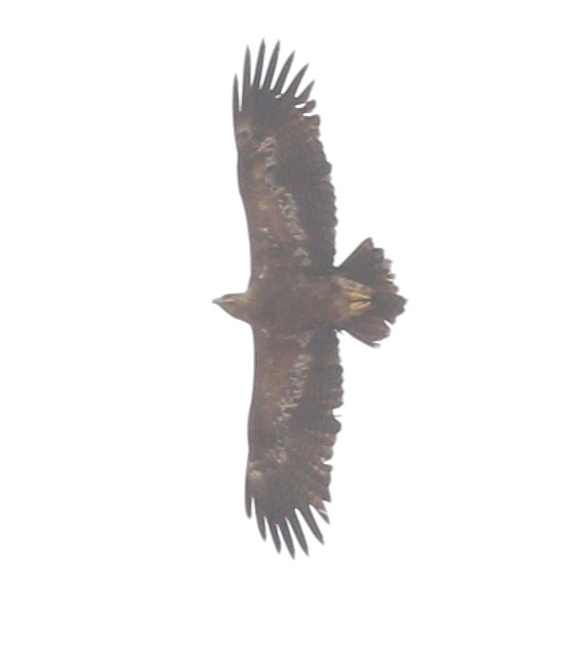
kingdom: Animalia
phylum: Chordata
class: Aves
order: Accipitriformes
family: Accipitridae
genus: Aquila
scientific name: Aquila nipalensis
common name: Steppe eagle
